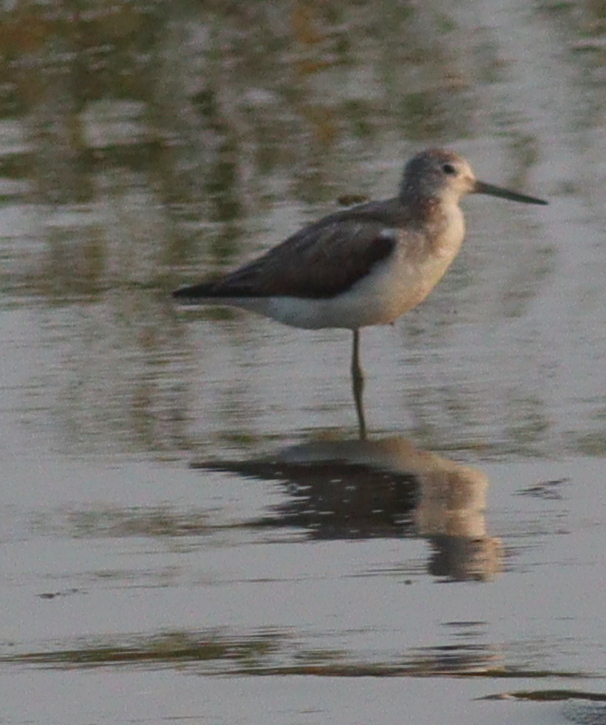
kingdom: Animalia
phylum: Chordata
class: Aves
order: Charadriiformes
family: Scolopacidae
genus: Tringa
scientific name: Tringa nebularia
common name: Common greenshank
